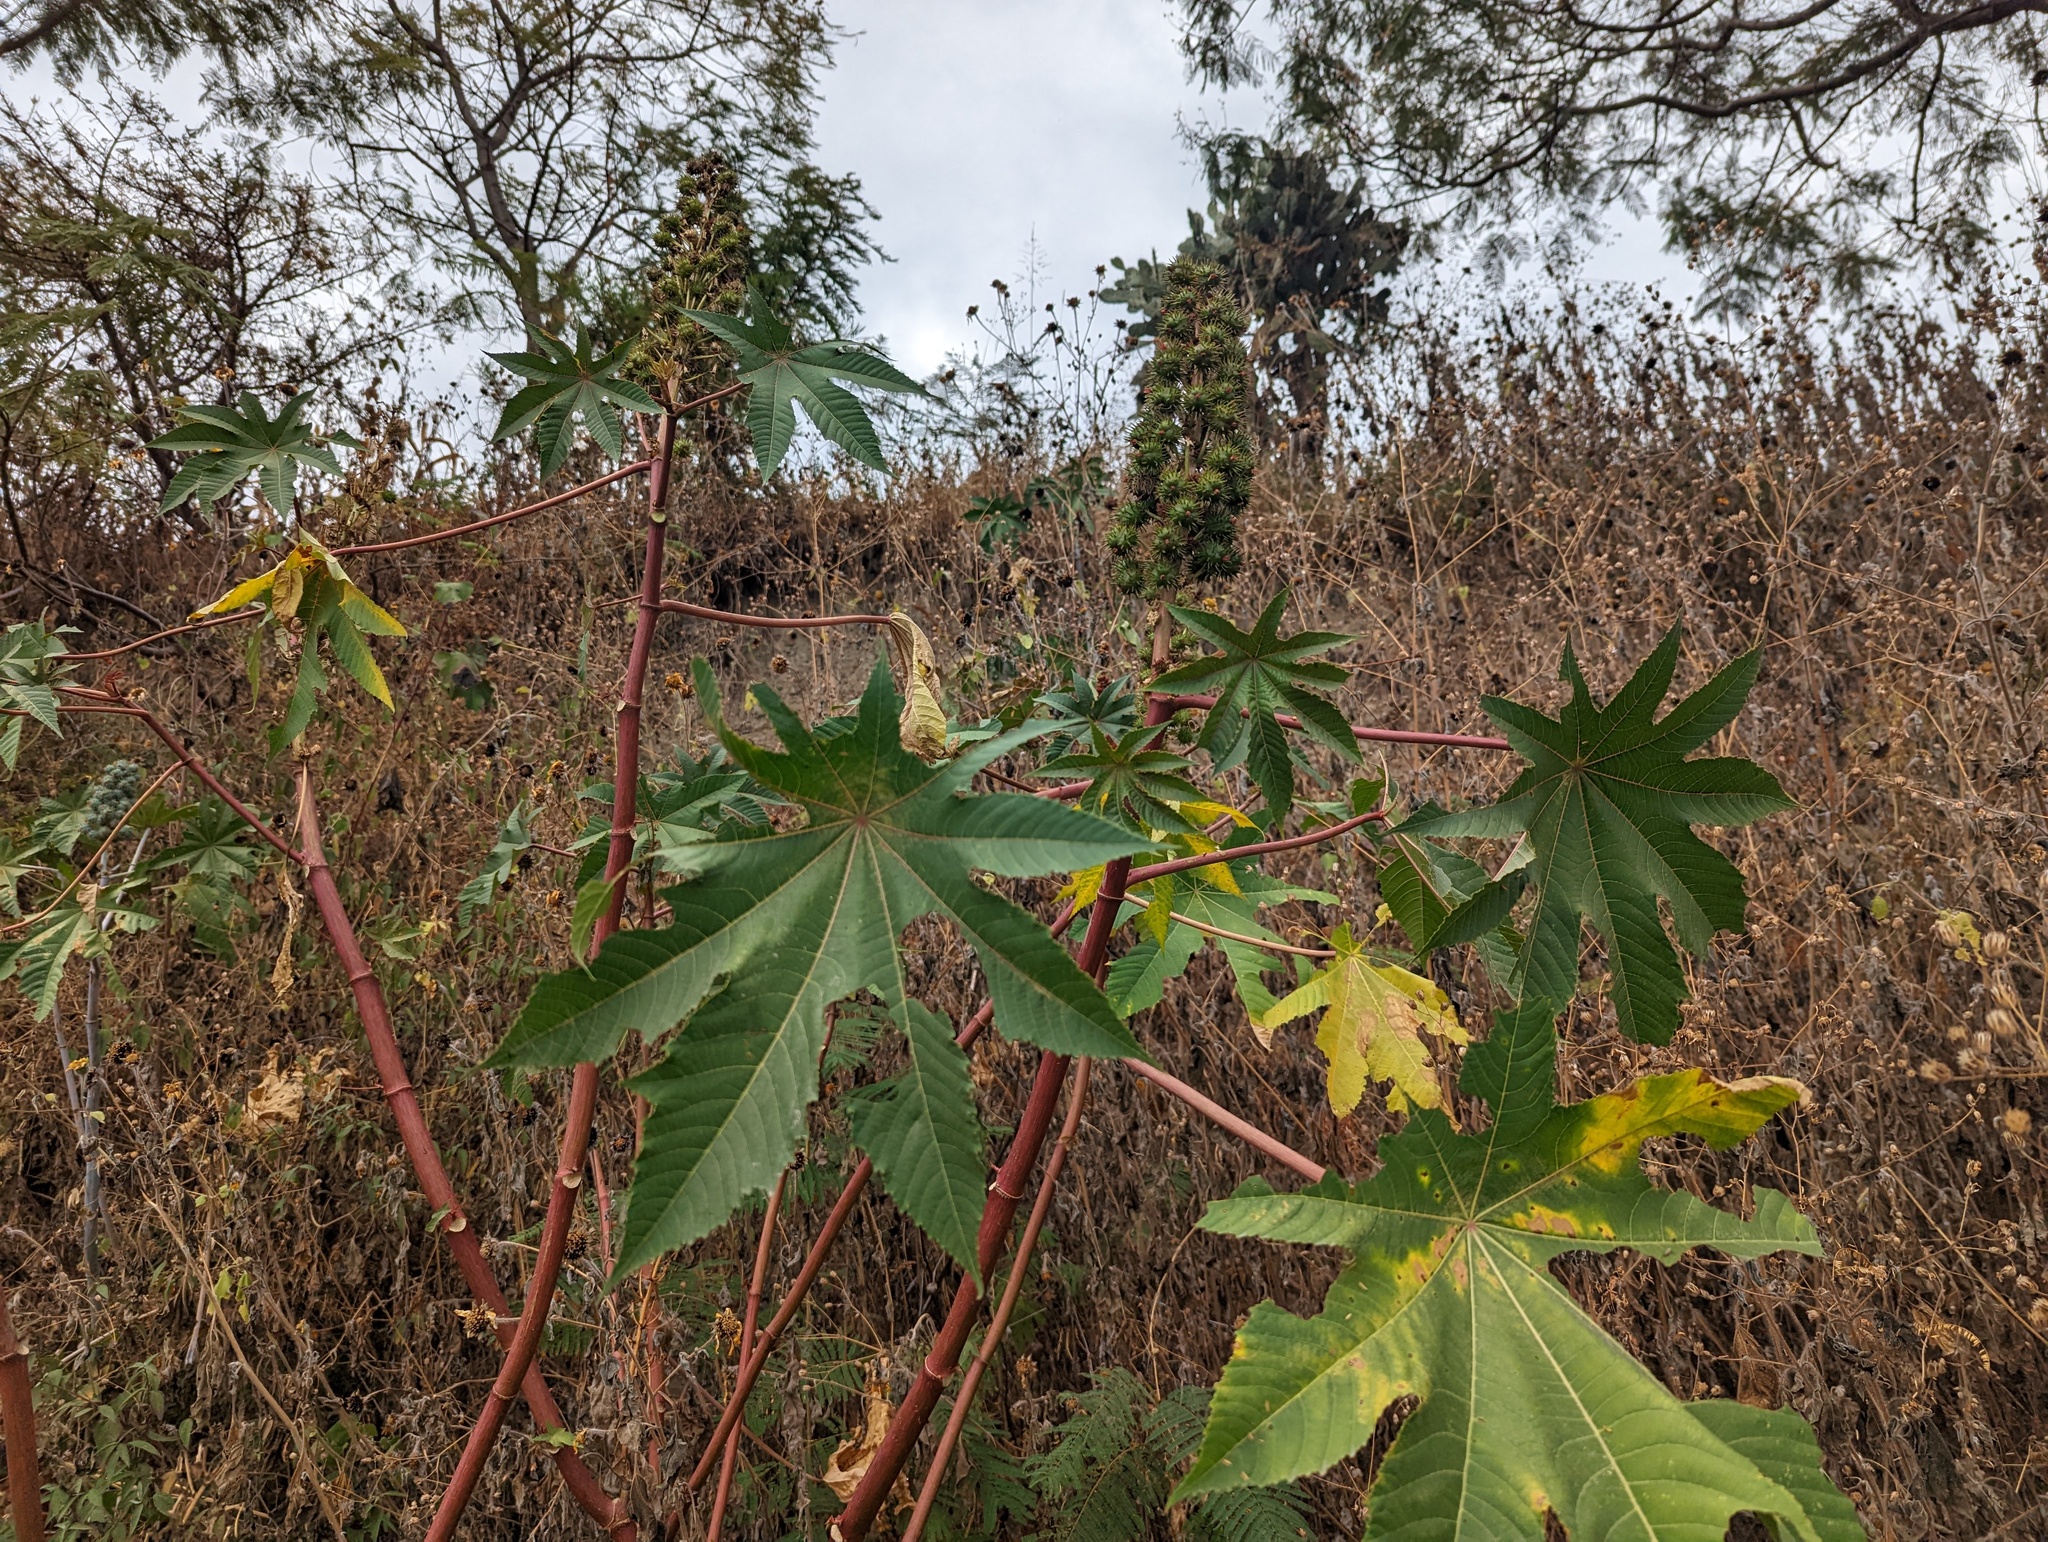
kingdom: Plantae
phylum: Tracheophyta
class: Magnoliopsida
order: Malpighiales
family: Euphorbiaceae
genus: Ricinus
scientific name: Ricinus communis
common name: Castor-oil-plant
